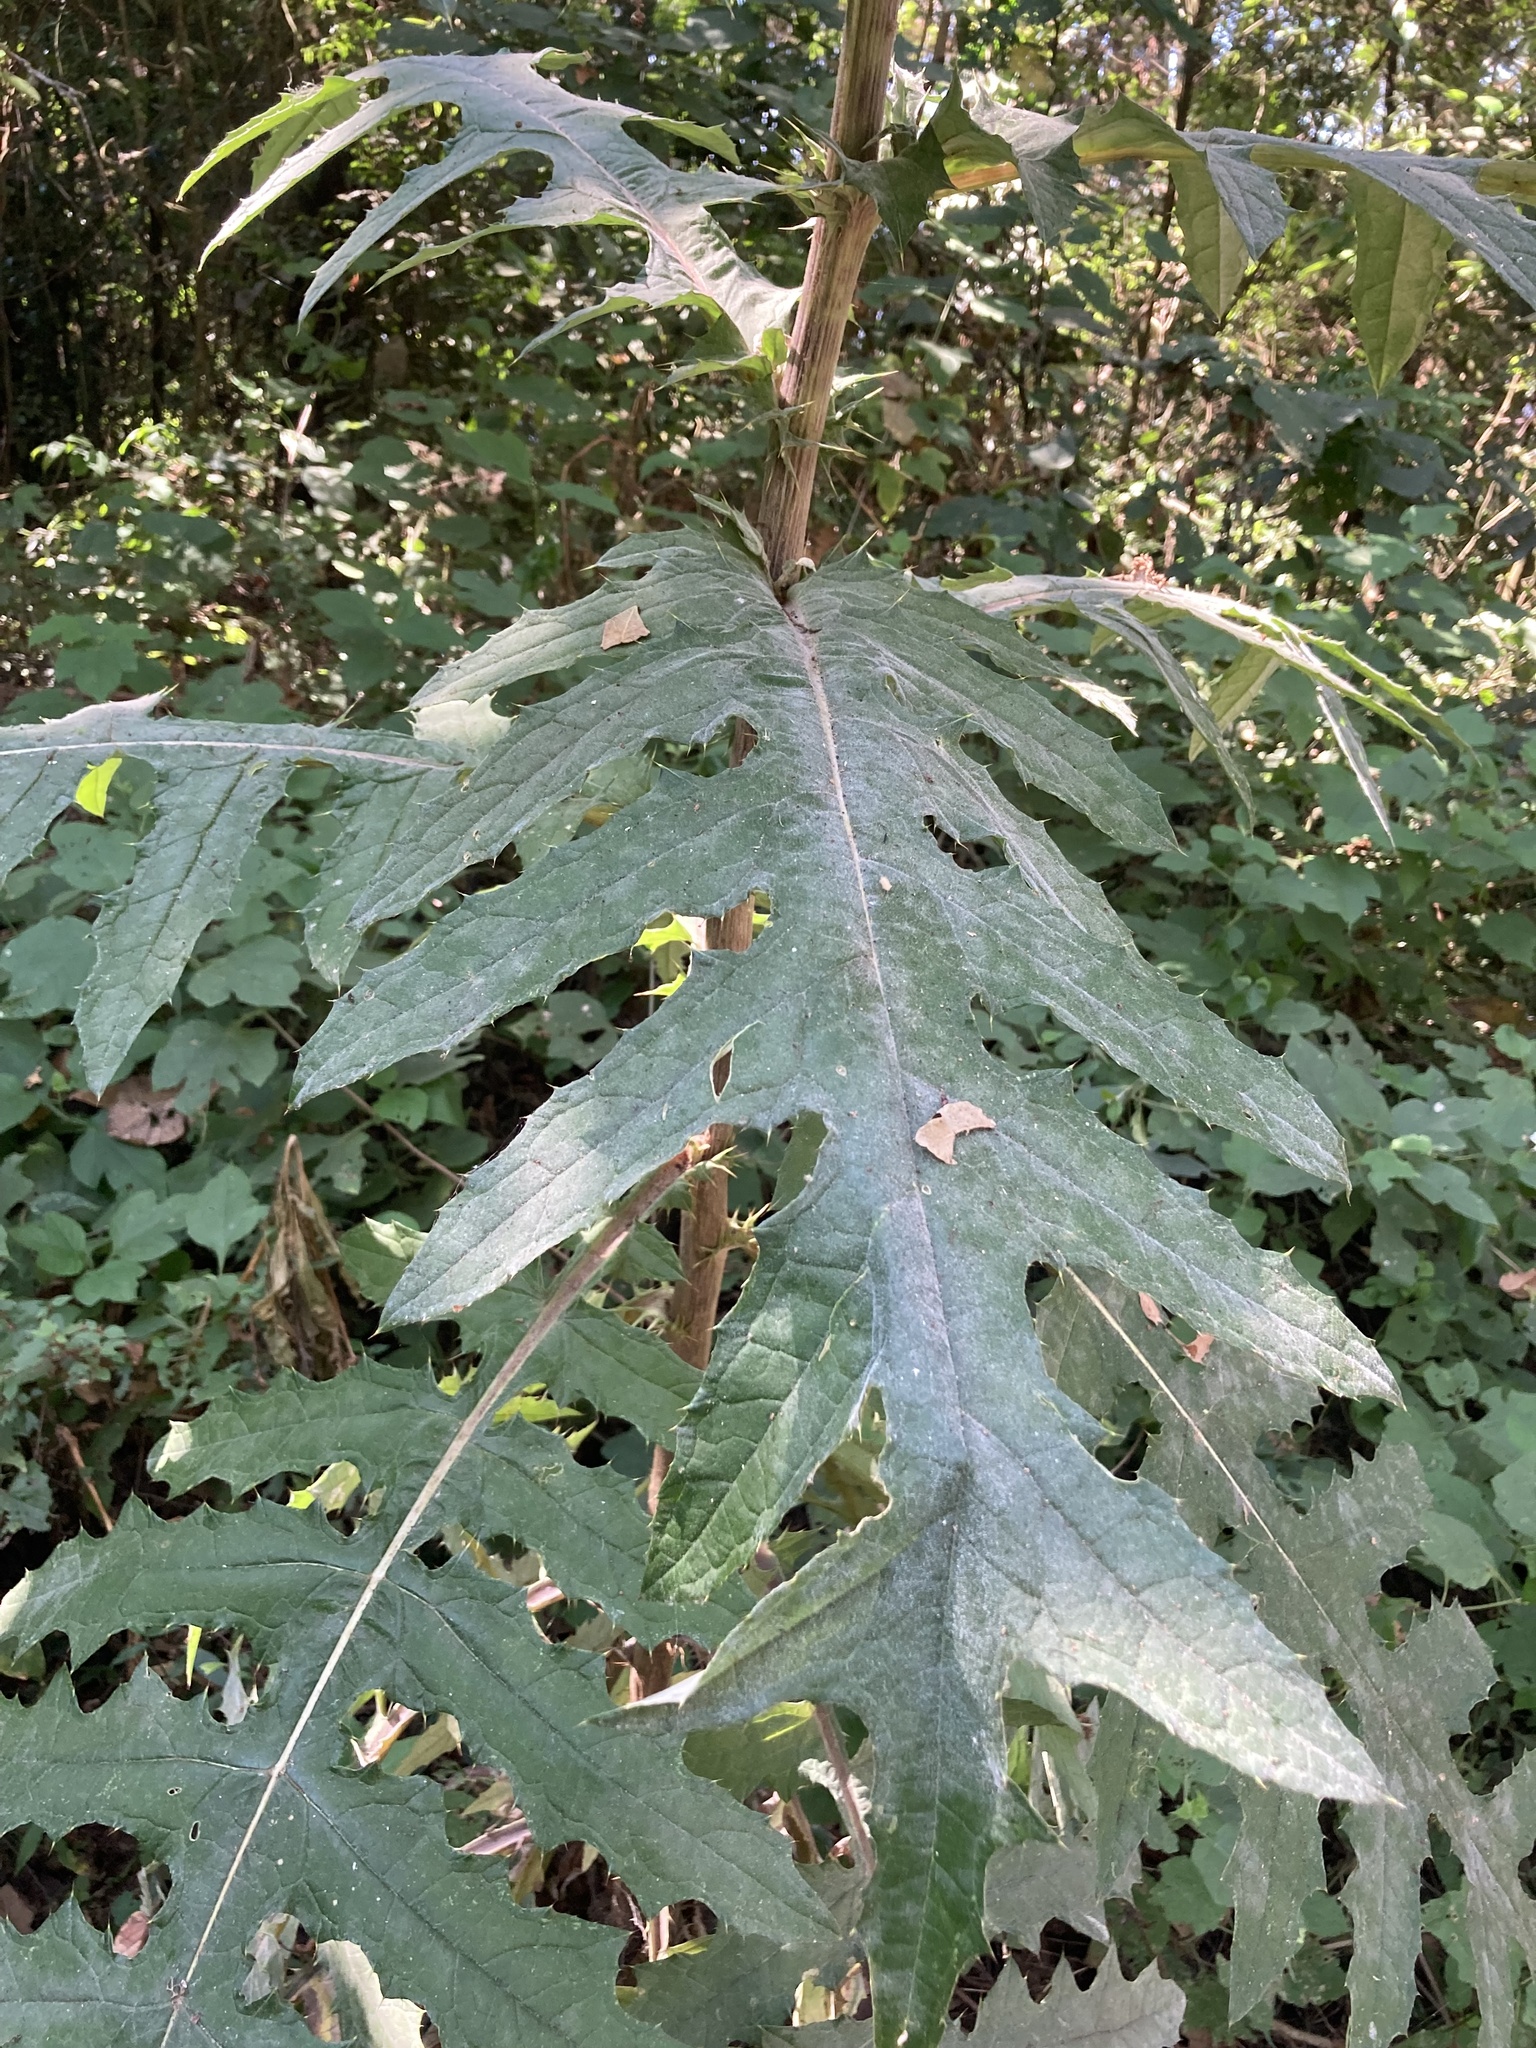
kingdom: Plantae
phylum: Tracheophyta
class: Magnoliopsida
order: Asterales
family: Asteraceae
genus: Cirsium
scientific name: Cirsium subcoriaceum
